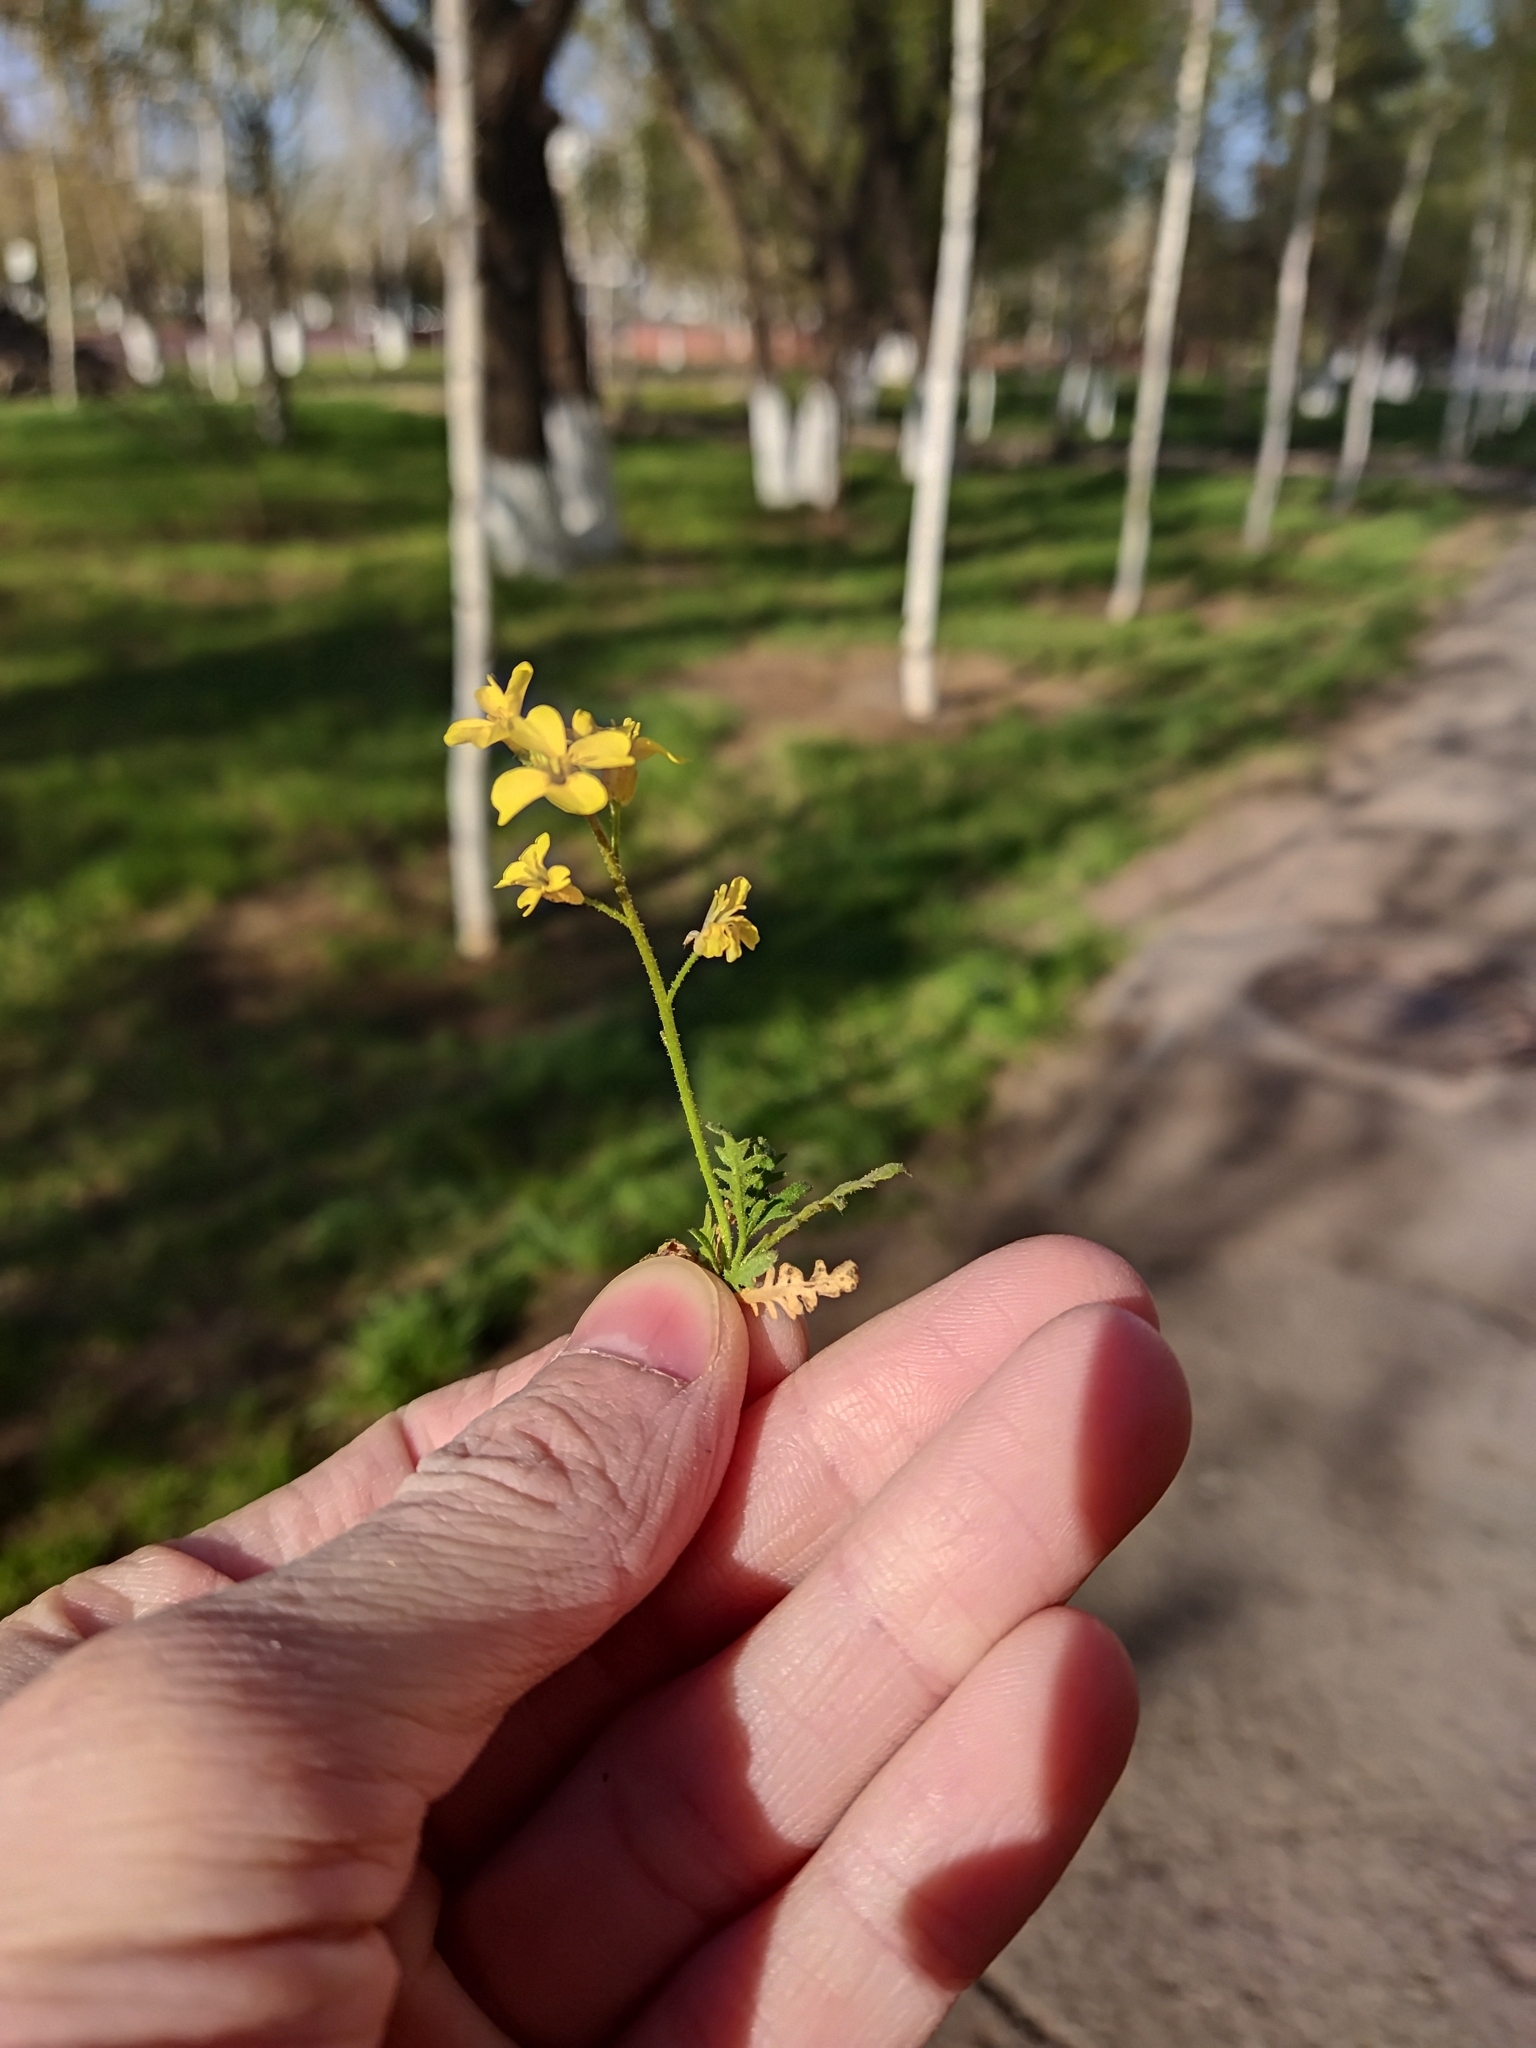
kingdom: Plantae
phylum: Tracheophyta
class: Magnoliopsida
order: Brassicales
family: Brassicaceae
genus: Chorispora
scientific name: Chorispora sibirica
